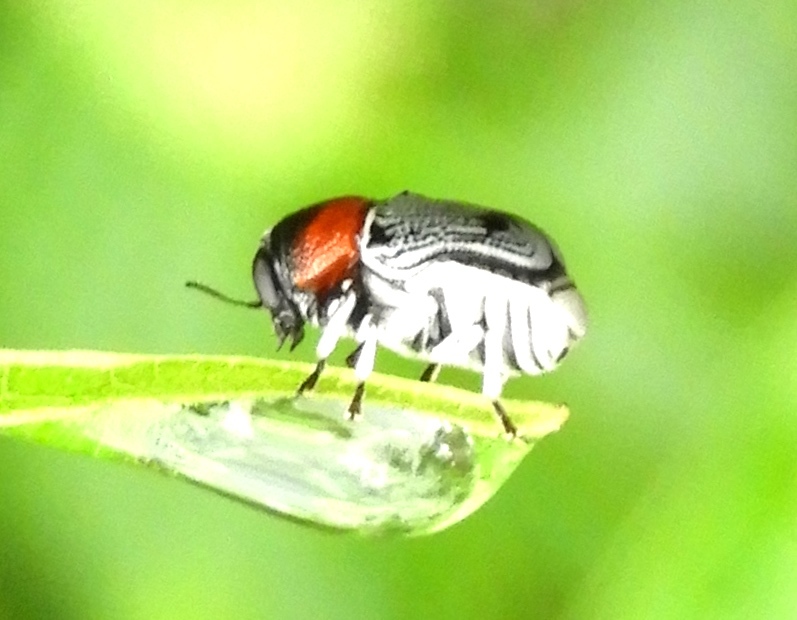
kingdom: Animalia
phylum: Arthropoda
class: Insecta
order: Coleoptera
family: Chrysomelidae
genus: Griburius
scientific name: Griburius montezuma
